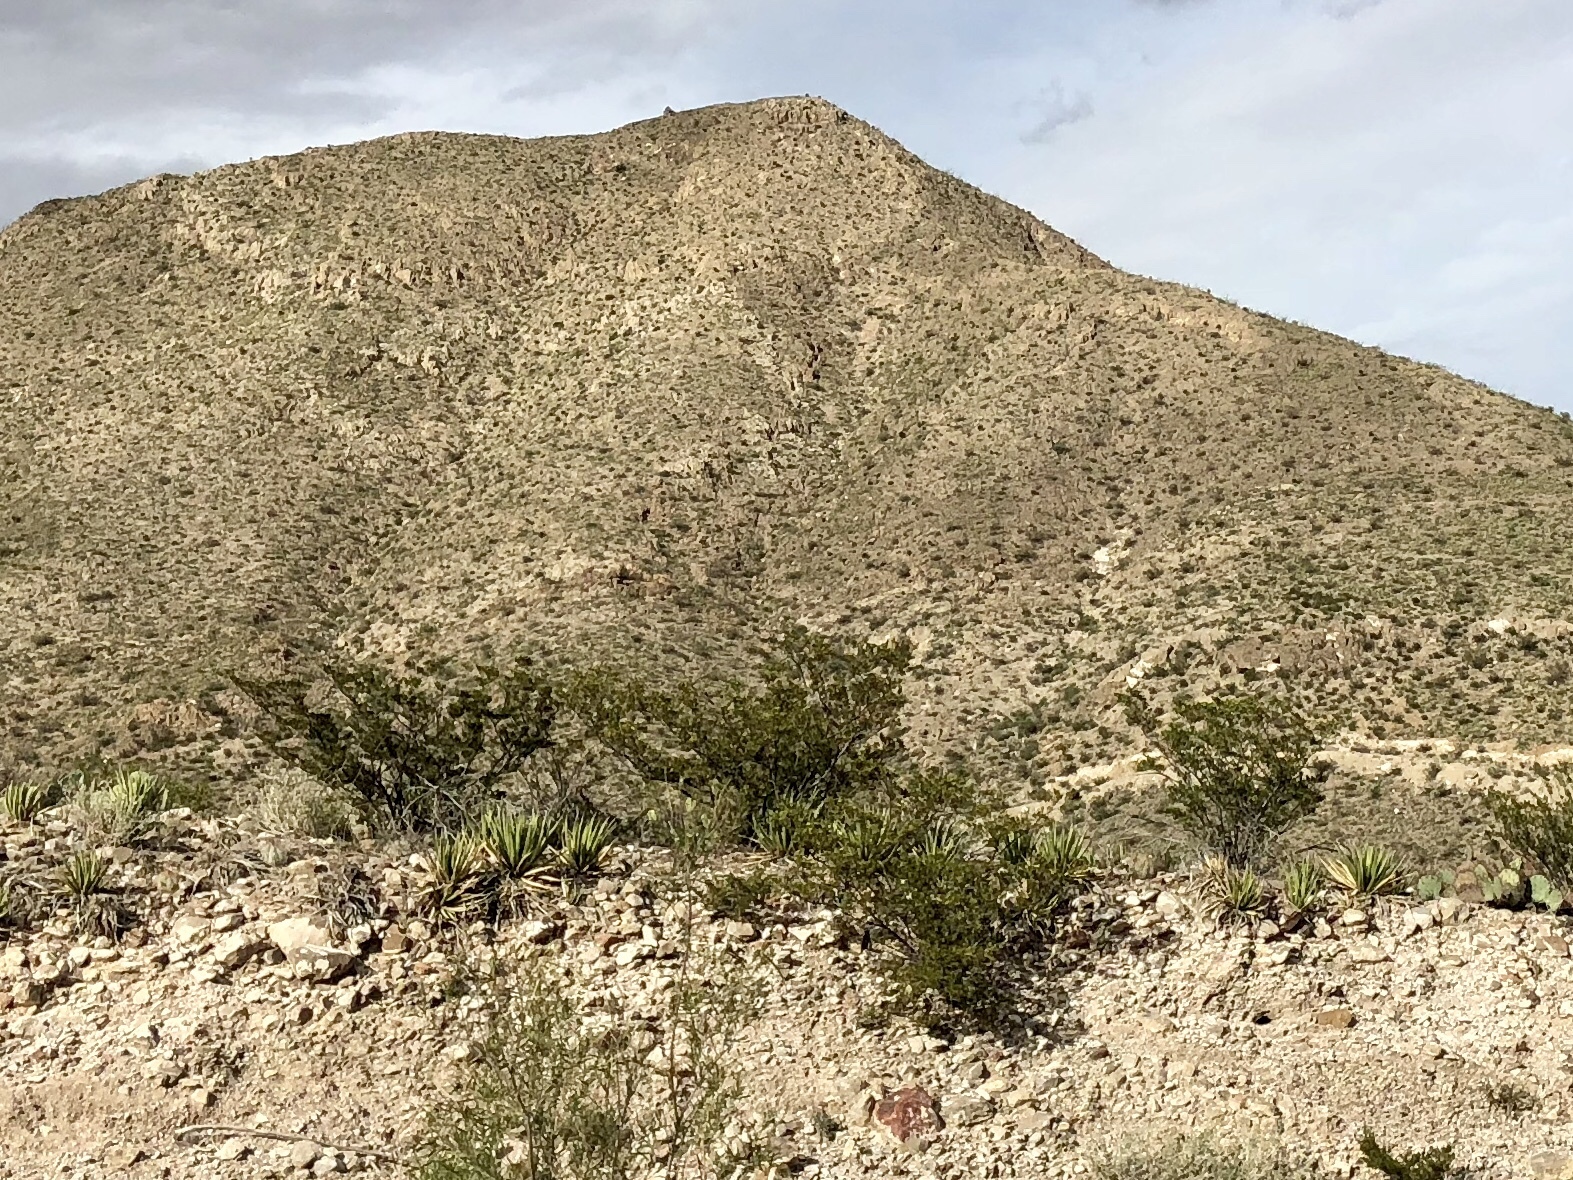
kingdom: Plantae
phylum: Tracheophyta
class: Magnoliopsida
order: Zygophyllales
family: Zygophyllaceae
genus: Larrea
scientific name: Larrea tridentata
